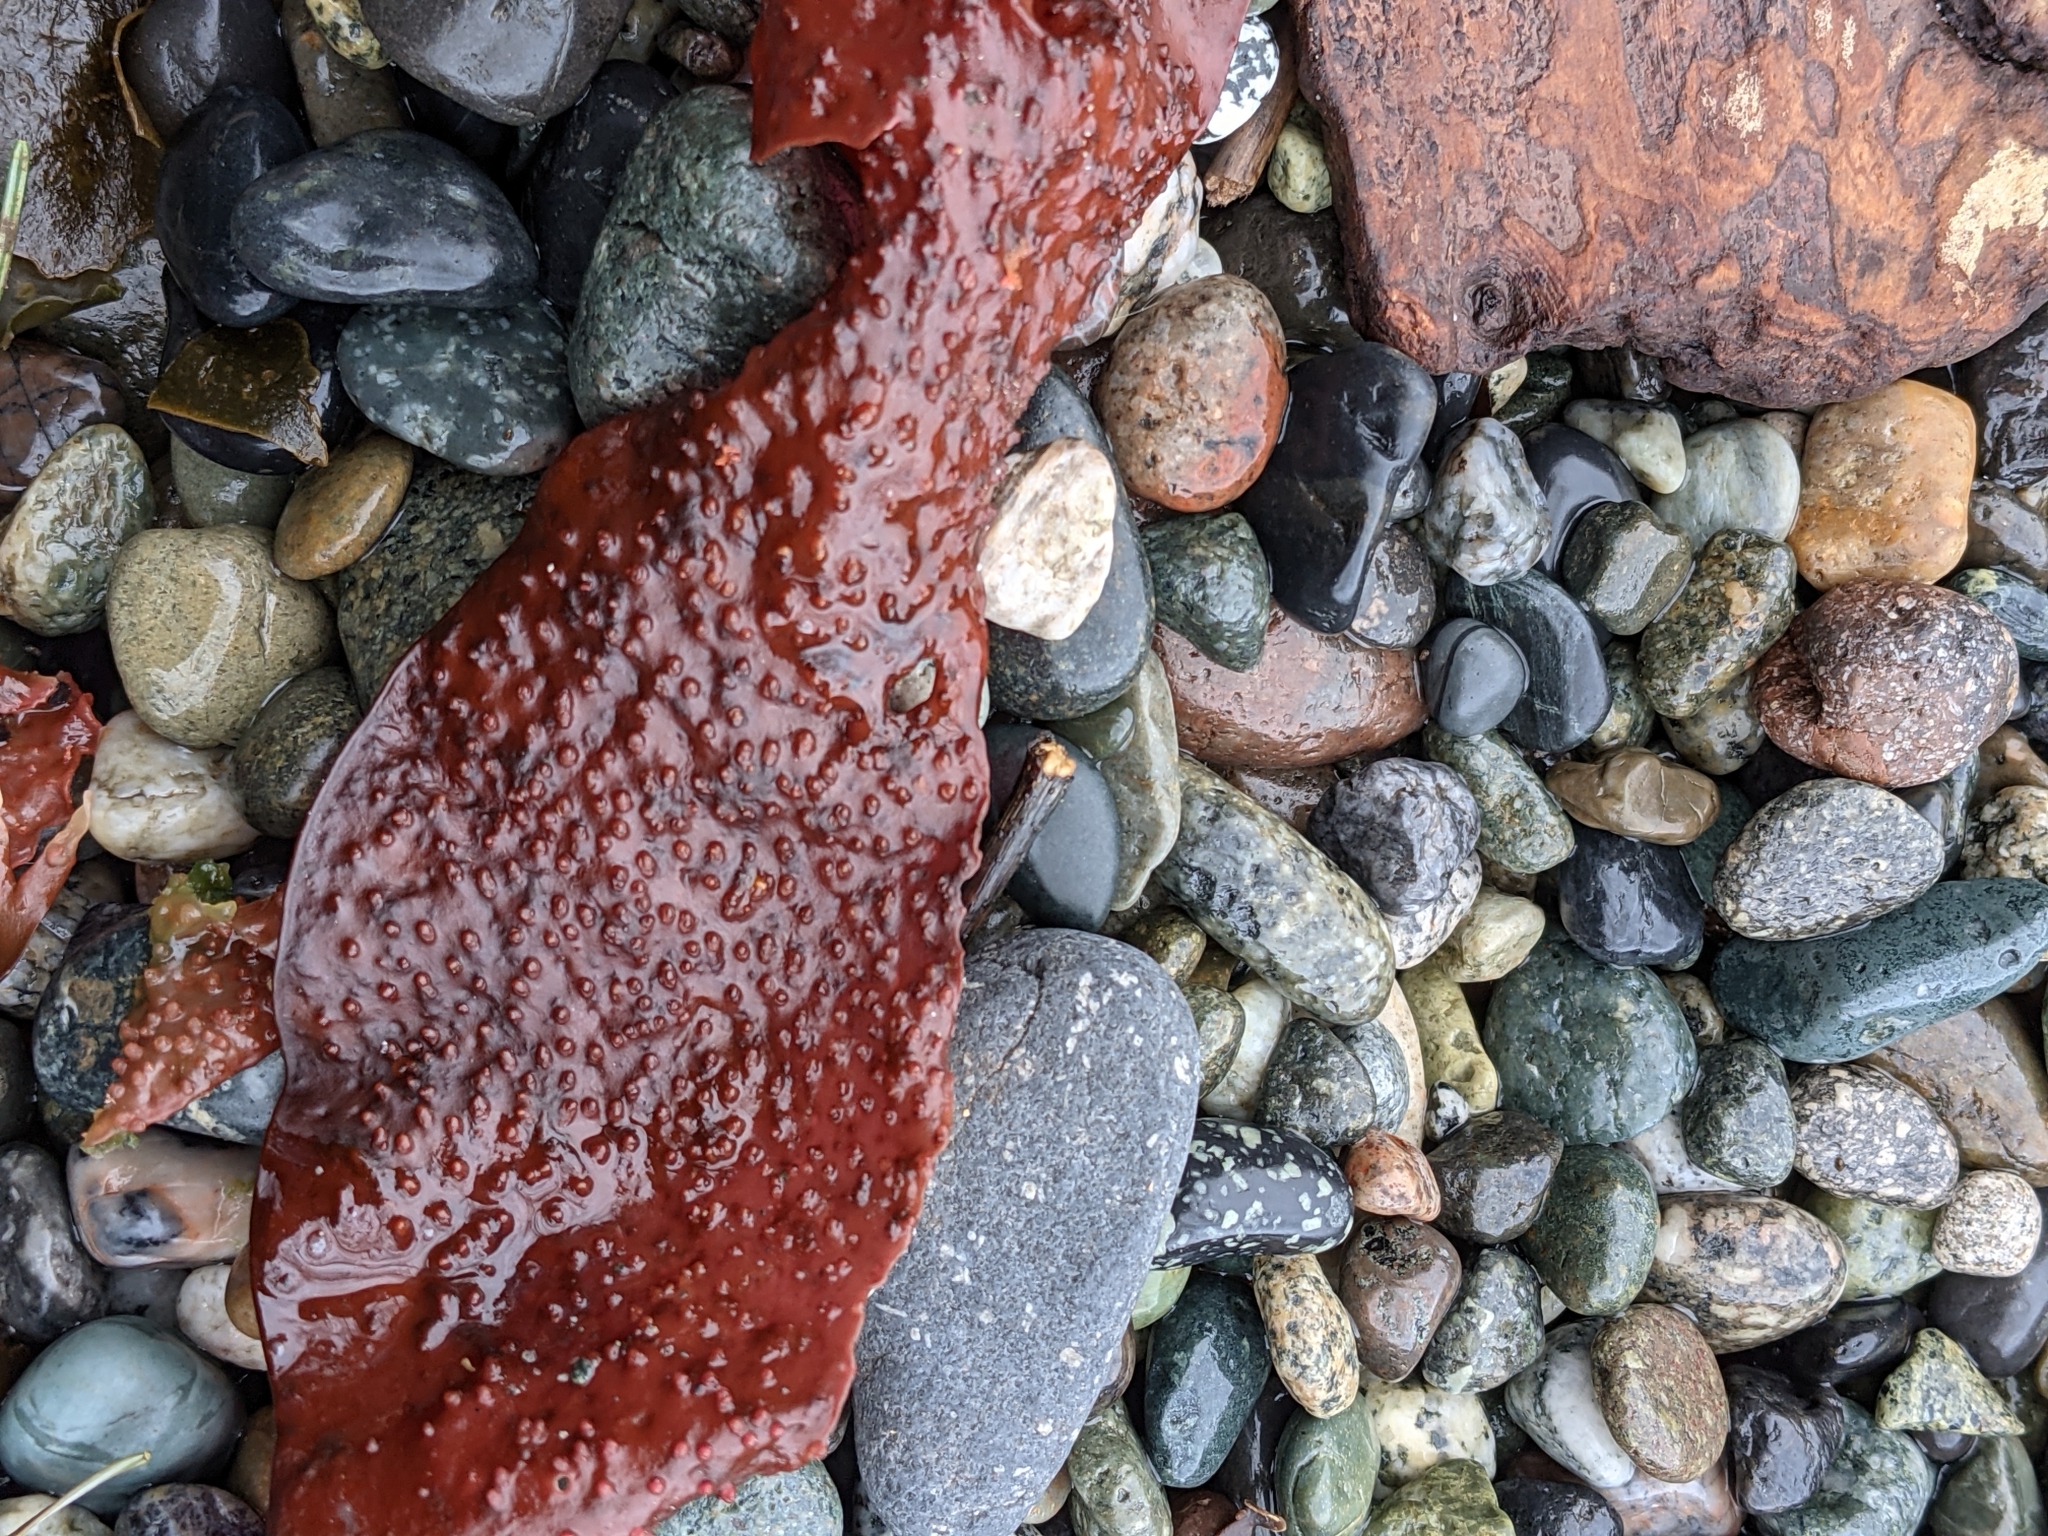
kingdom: Plantae
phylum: Rhodophyta
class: Florideophyceae
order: Gigartinales
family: Gigartinaceae
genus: Chondracanthus
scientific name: Chondracanthus exasperatus
